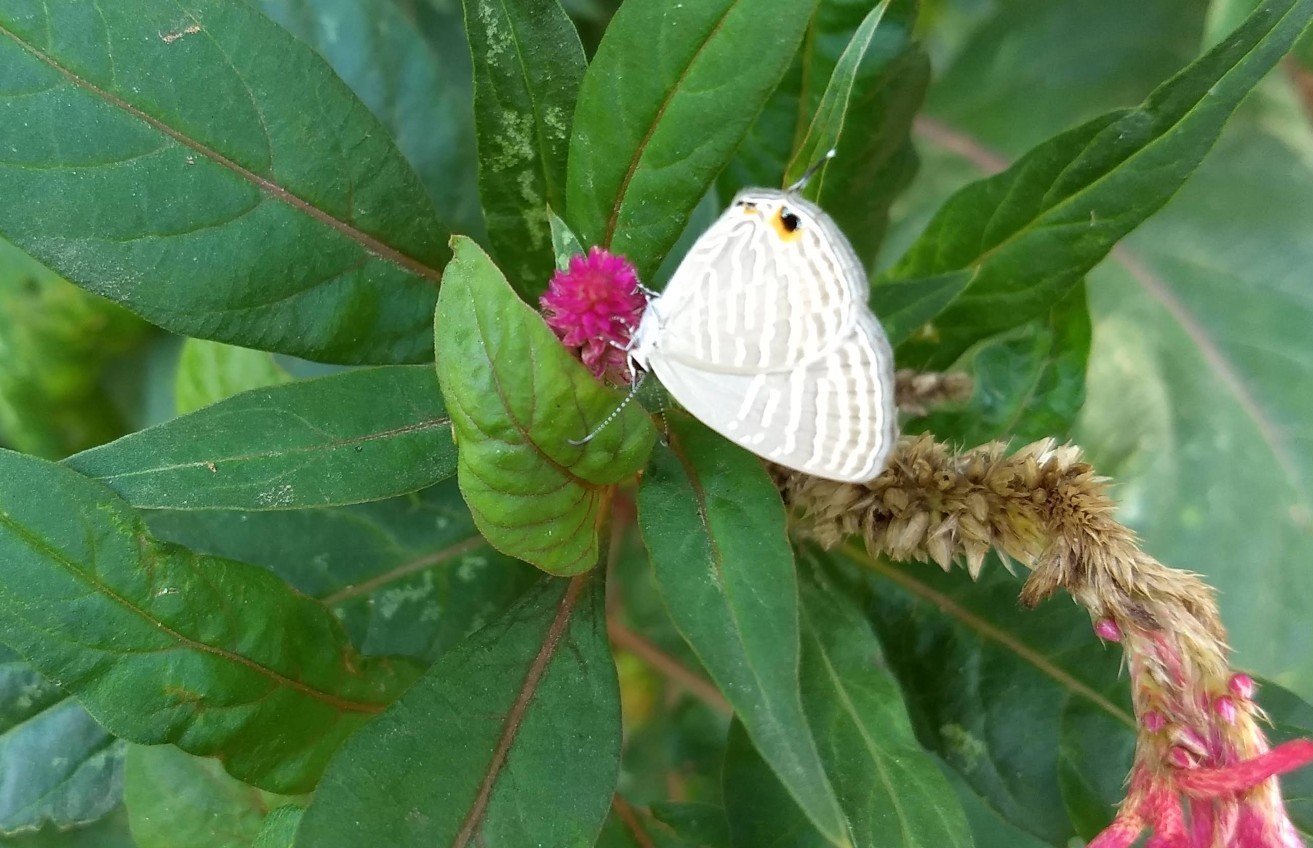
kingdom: Animalia
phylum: Arthropoda
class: Insecta
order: Lepidoptera
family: Lycaenidae
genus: Jamides
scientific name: Jamides celeno
